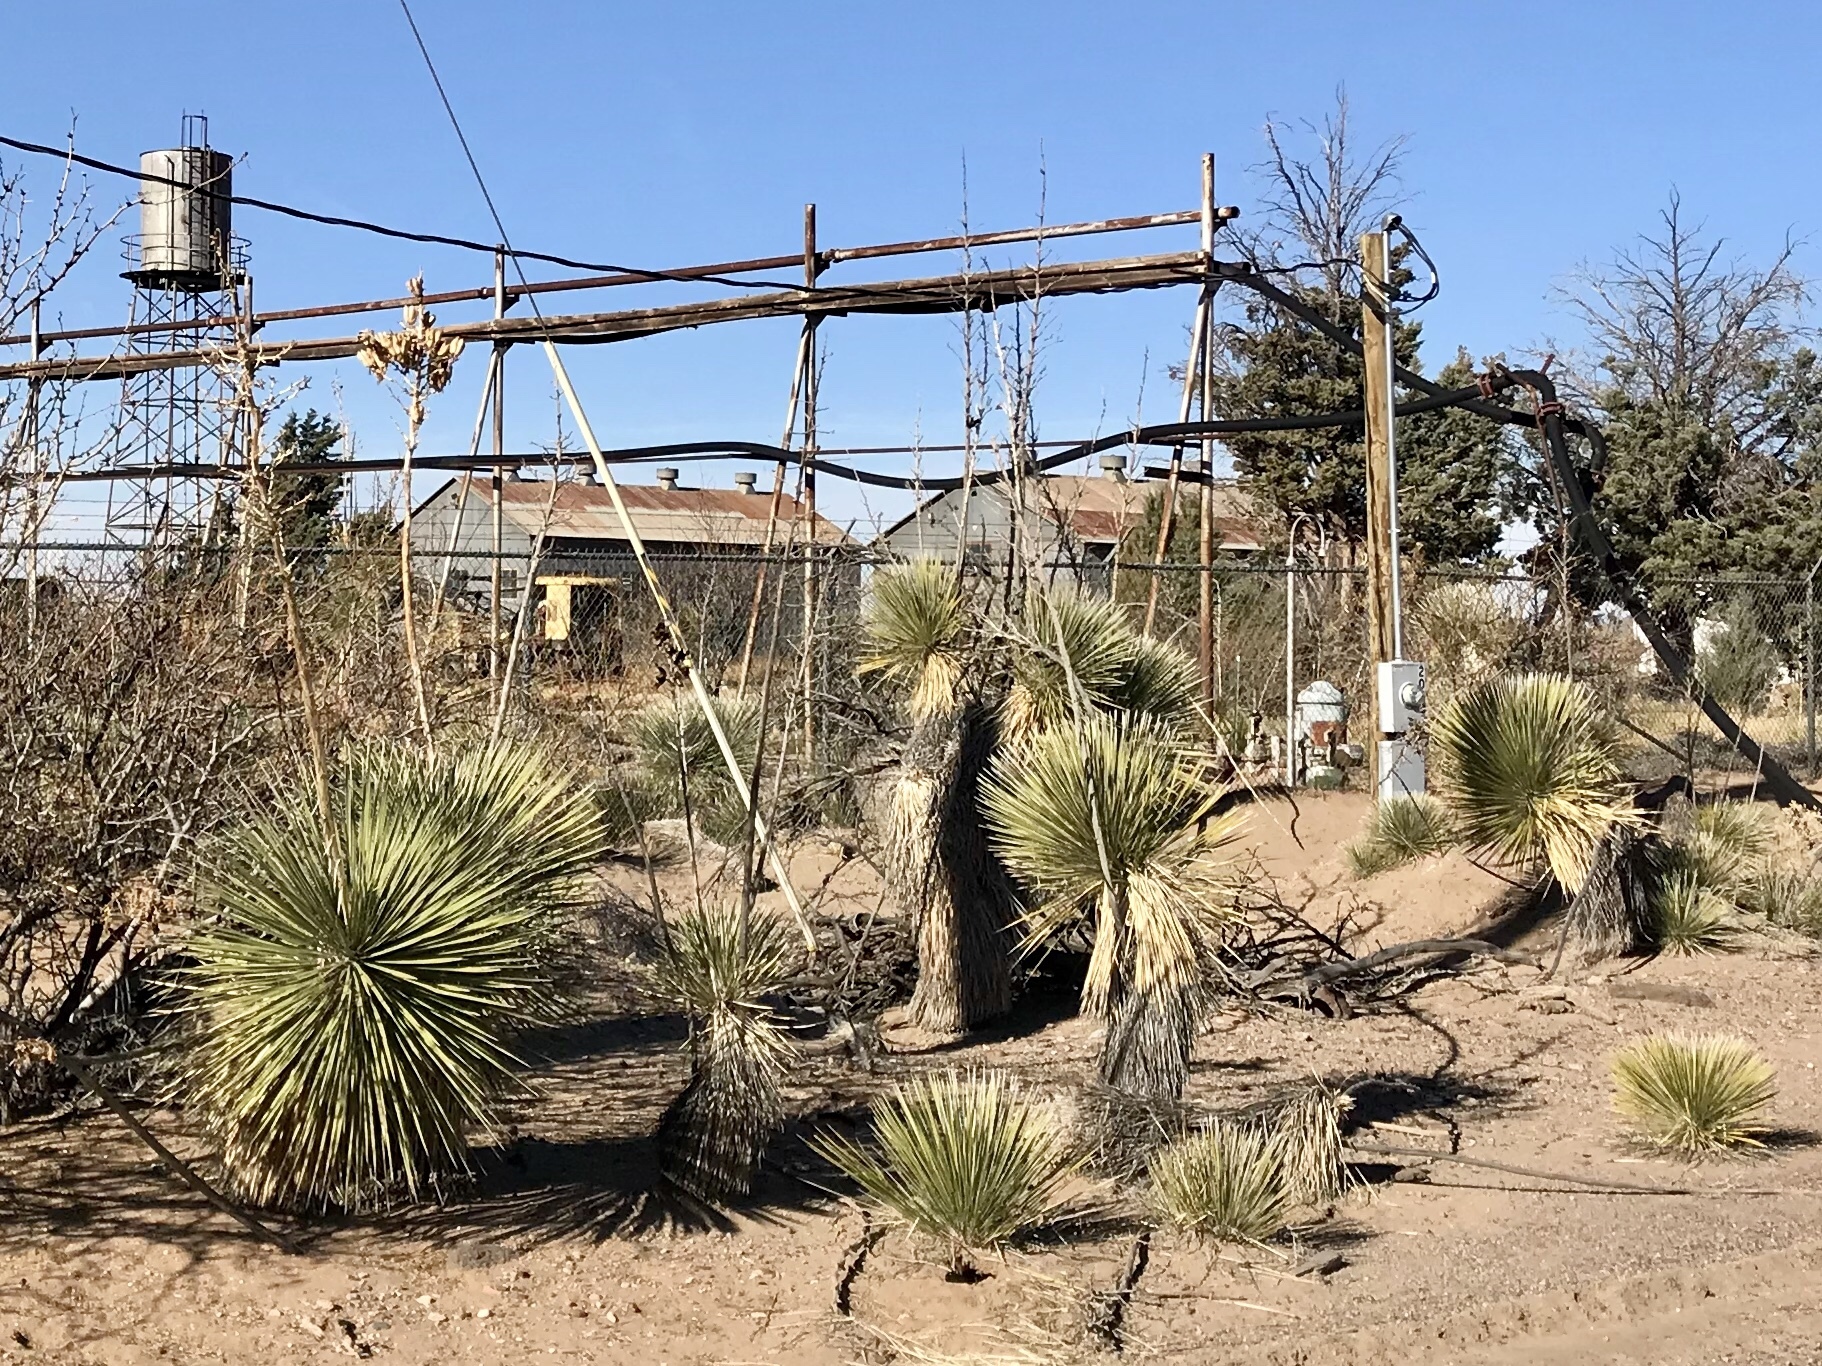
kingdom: Plantae
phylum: Tracheophyta
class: Liliopsida
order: Asparagales
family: Asparagaceae
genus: Yucca
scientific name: Yucca elata
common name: Palmella
